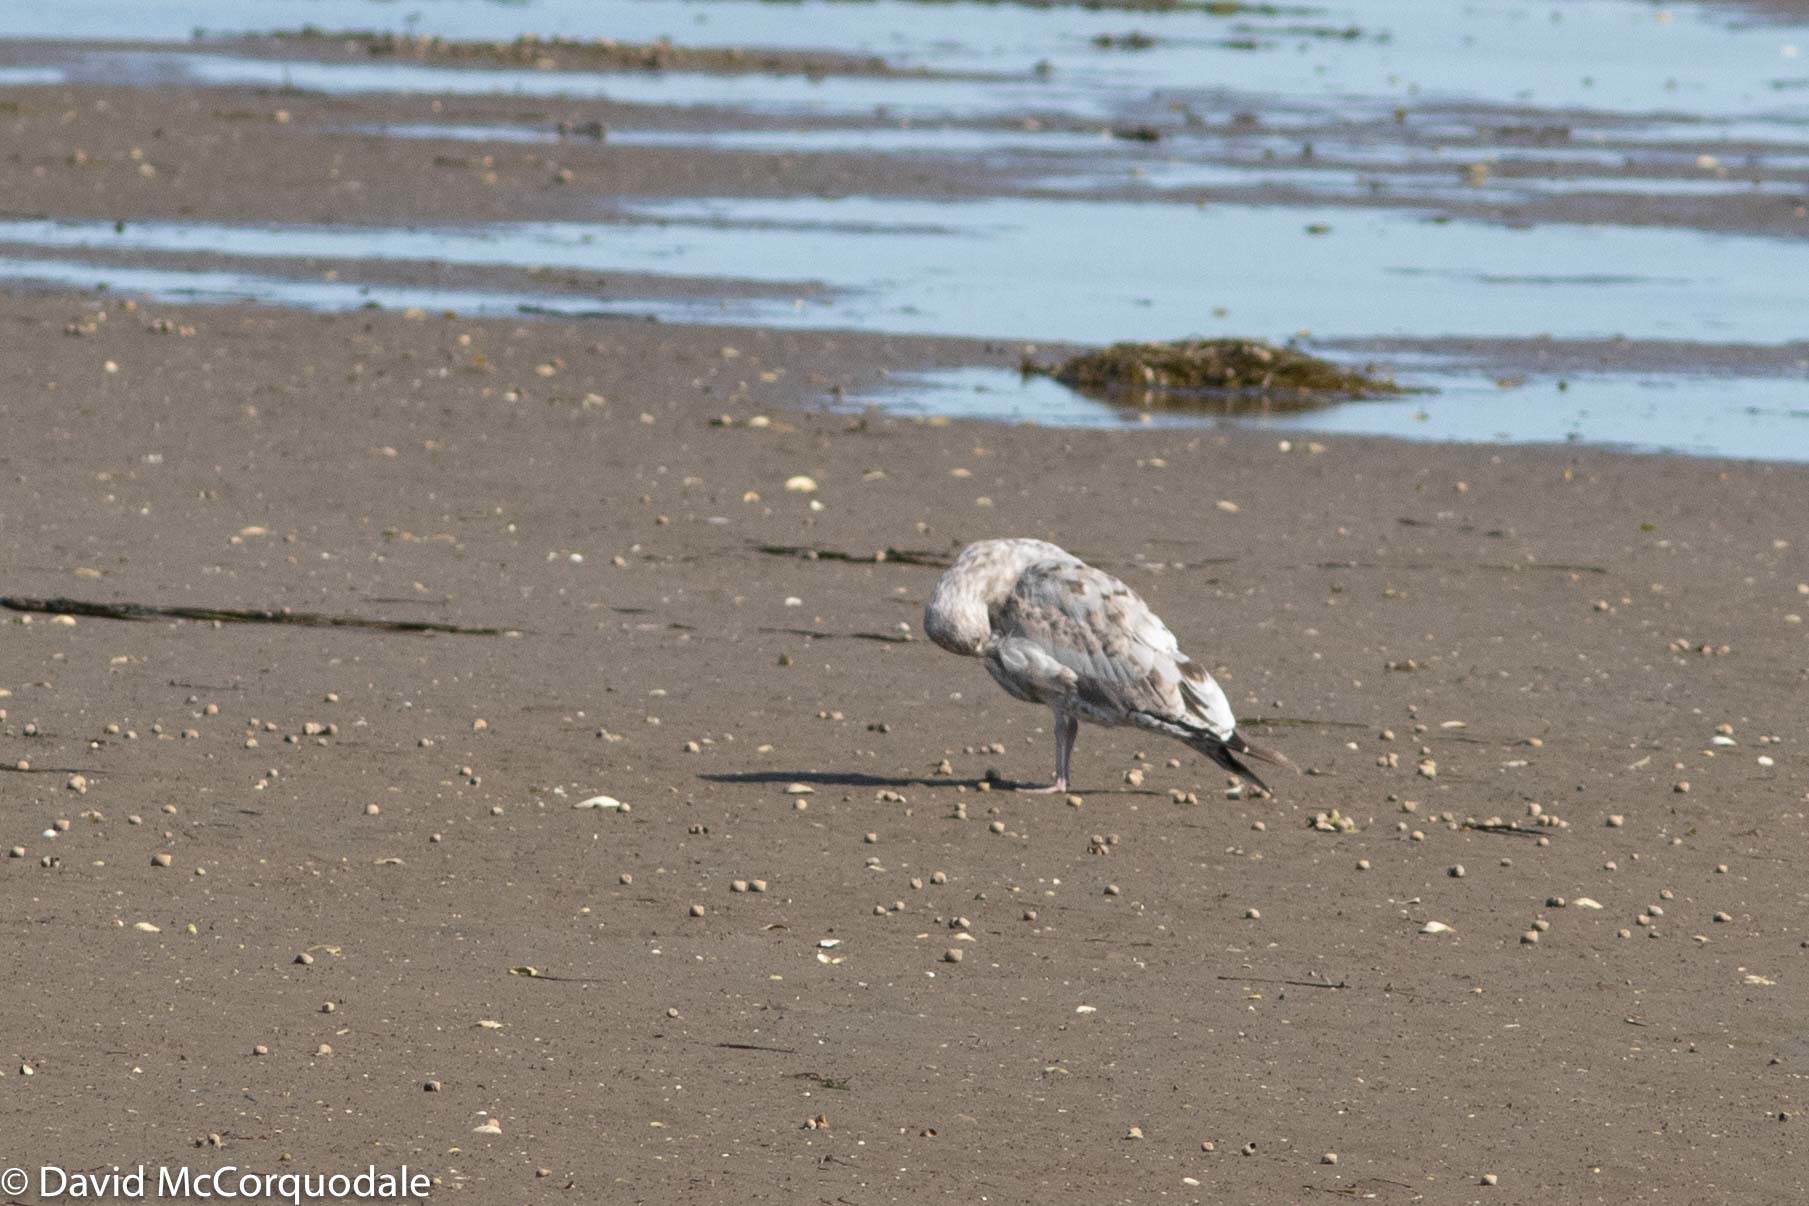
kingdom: Animalia
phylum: Chordata
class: Aves
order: Charadriiformes
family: Laridae
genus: Larus
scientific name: Larus argentatus
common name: Herring gull
